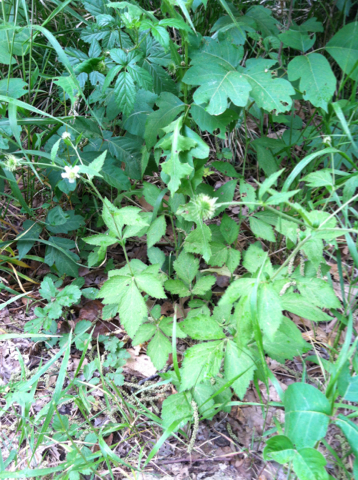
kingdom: Plantae
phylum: Tracheophyta
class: Magnoliopsida
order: Rosales
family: Rosaceae
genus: Geum
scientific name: Geum canadense
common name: White avens
